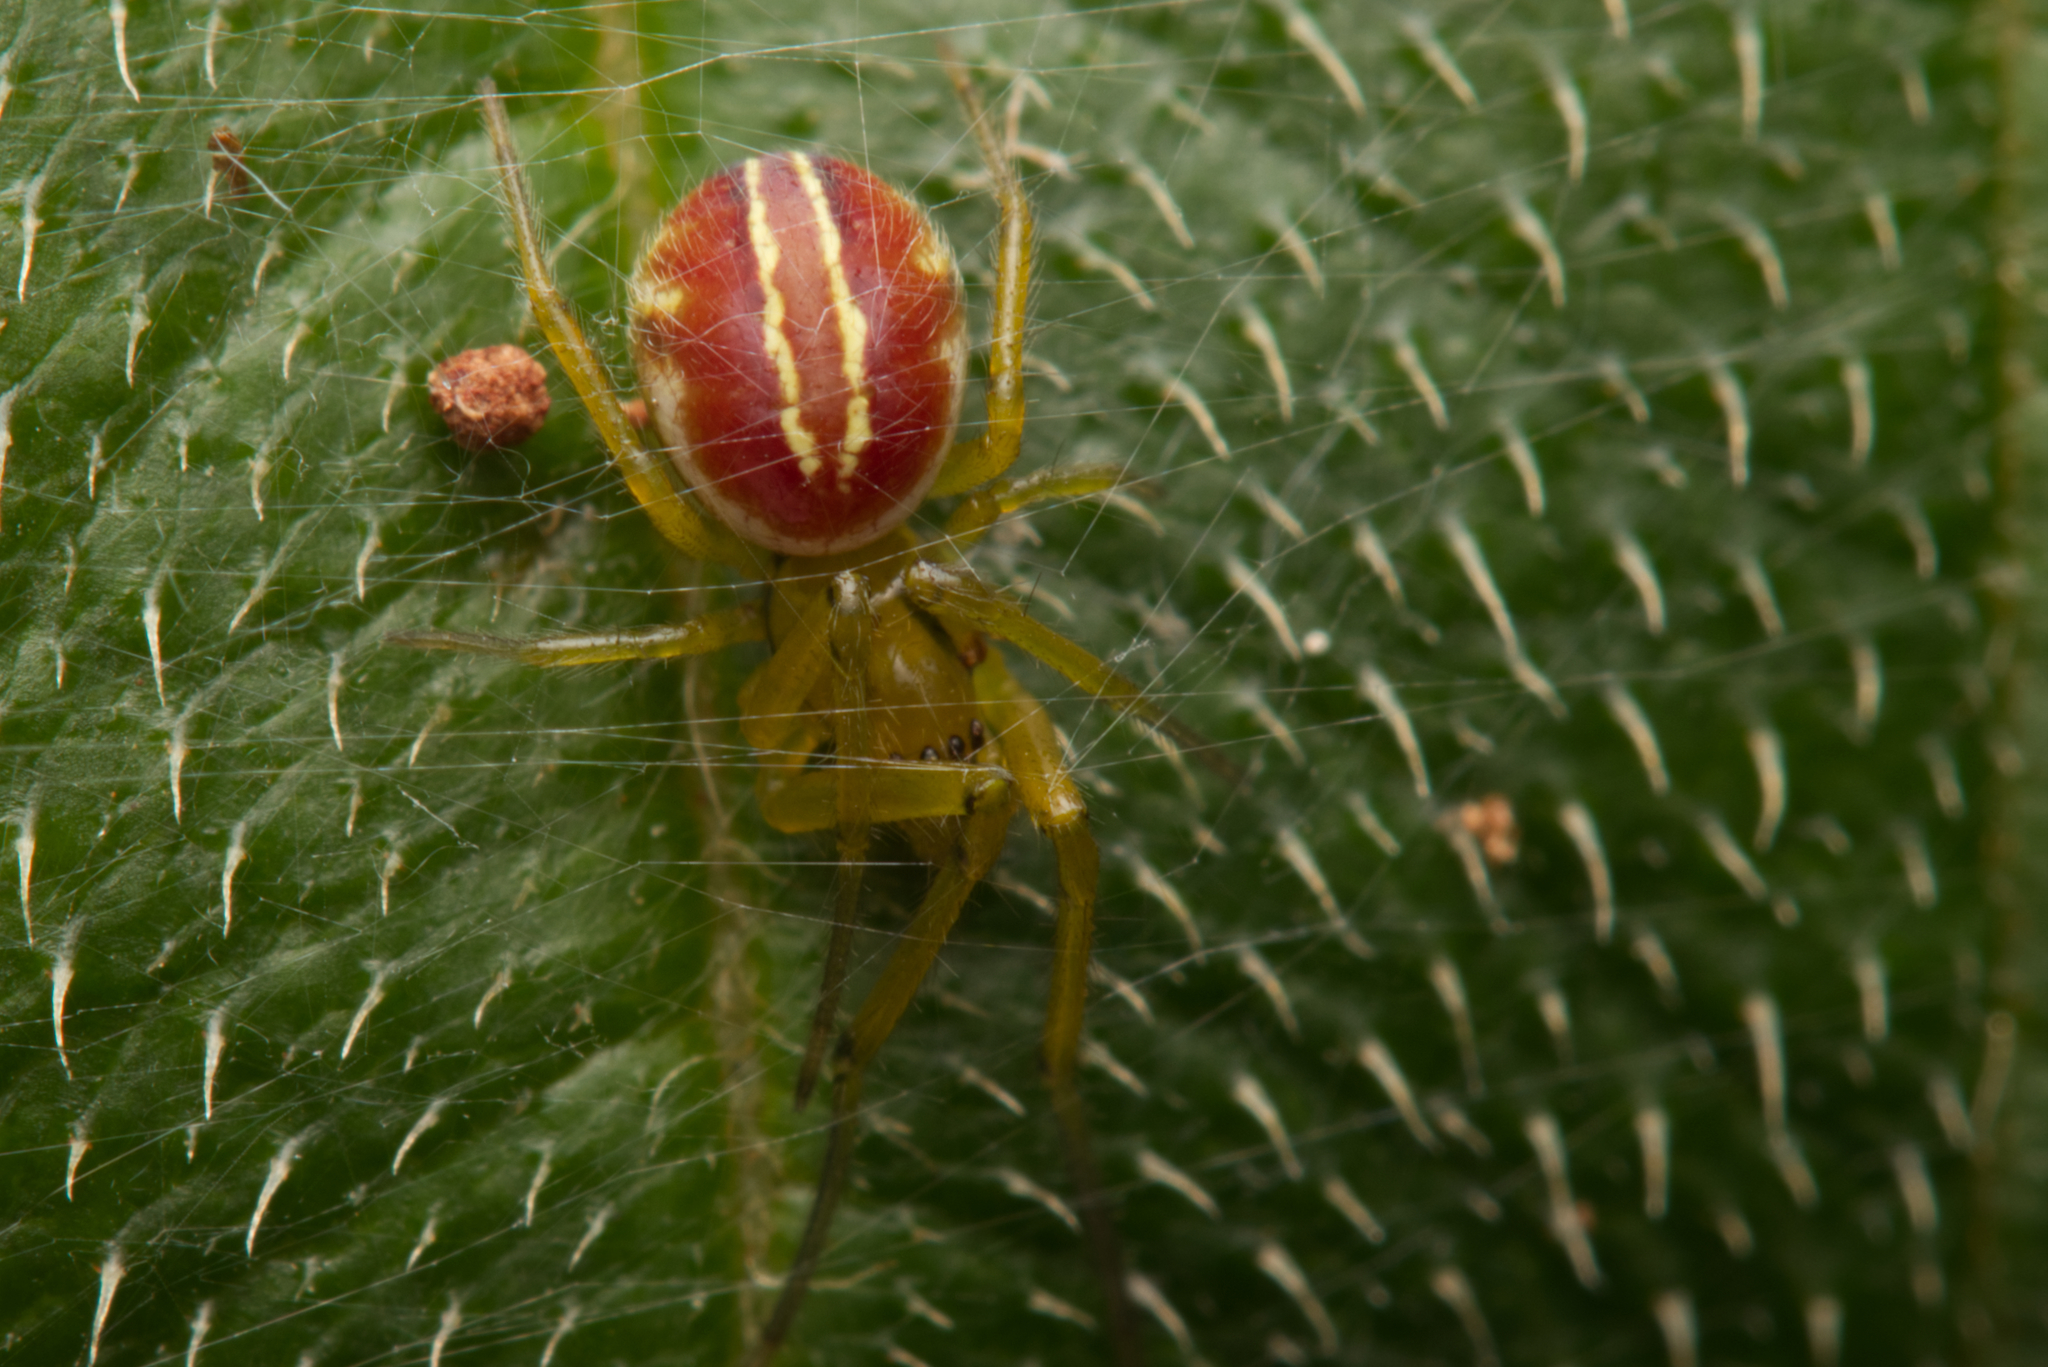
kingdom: Animalia
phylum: Arthropoda
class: Arachnida
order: Araneae
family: Araneidae
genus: Deliochus
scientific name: Deliochus zelivira
